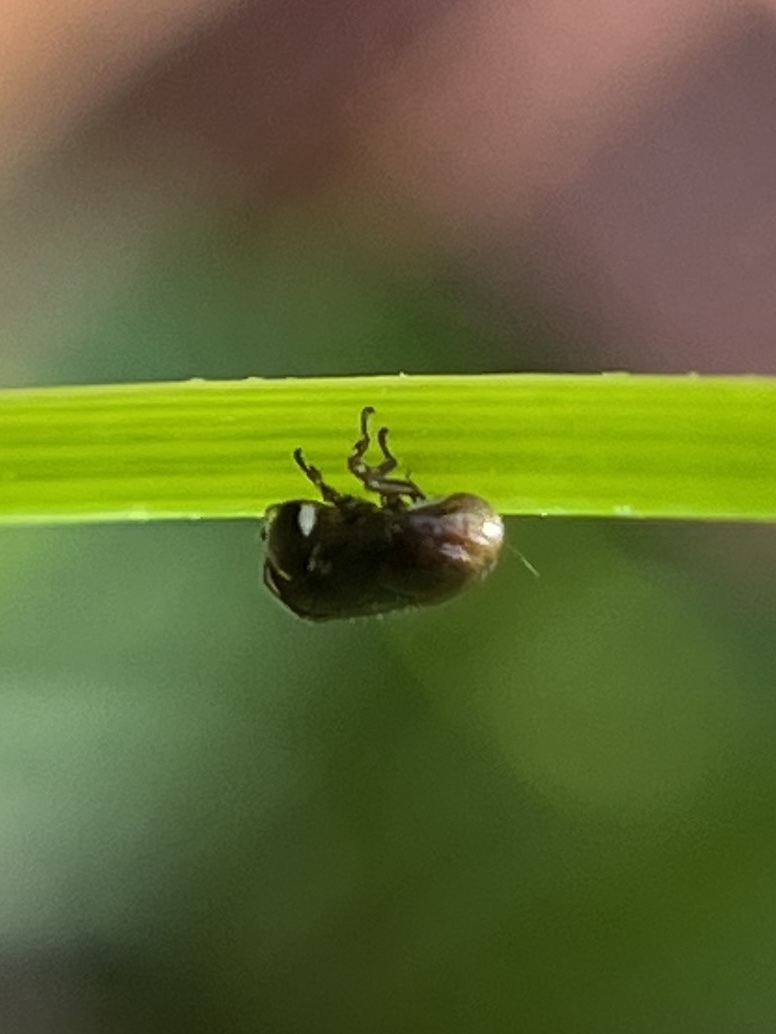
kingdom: Animalia
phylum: Arthropoda
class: Insecta
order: Hemiptera
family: Clastopteridae
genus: Clastoptera
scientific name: Clastoptera xanthocephala
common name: Sunflower spittlebug
